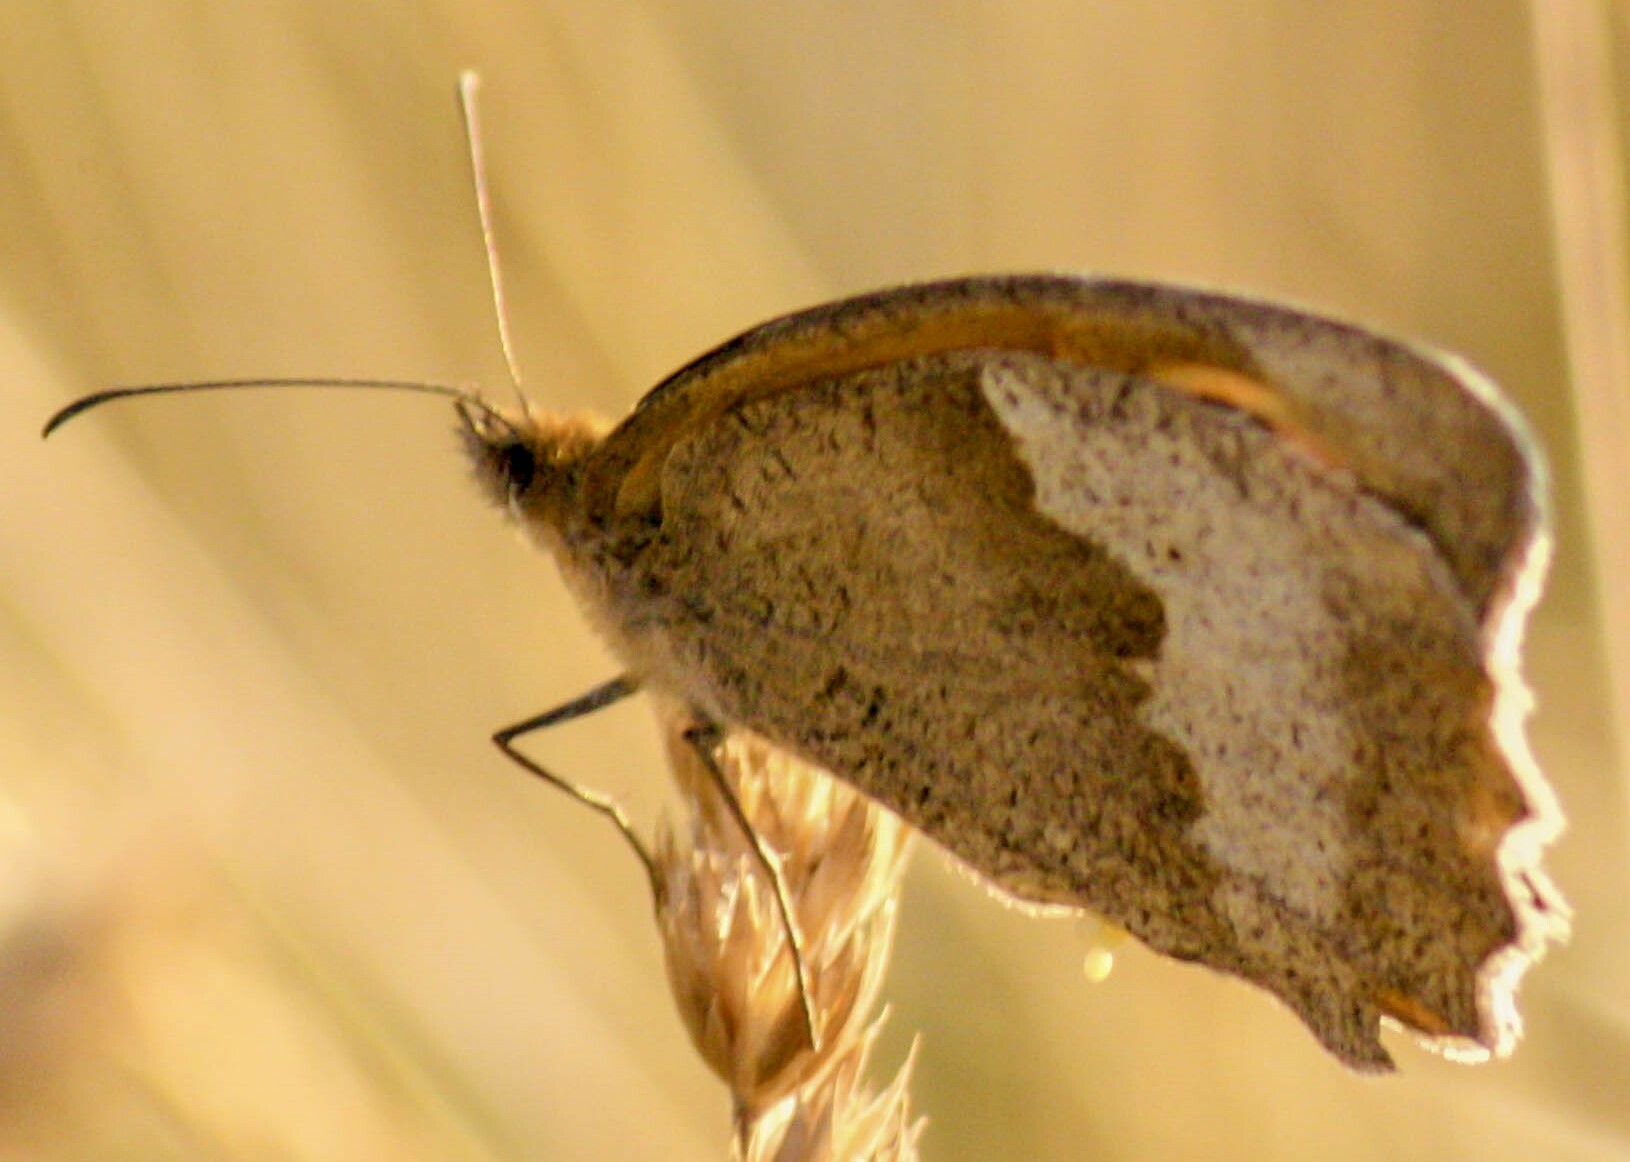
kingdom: Animalia
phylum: Arthropoda
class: Insecta
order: Lepidoptera
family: Nymphalidae
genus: Maniola
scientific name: Maniola jurtina
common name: Meadow brown
